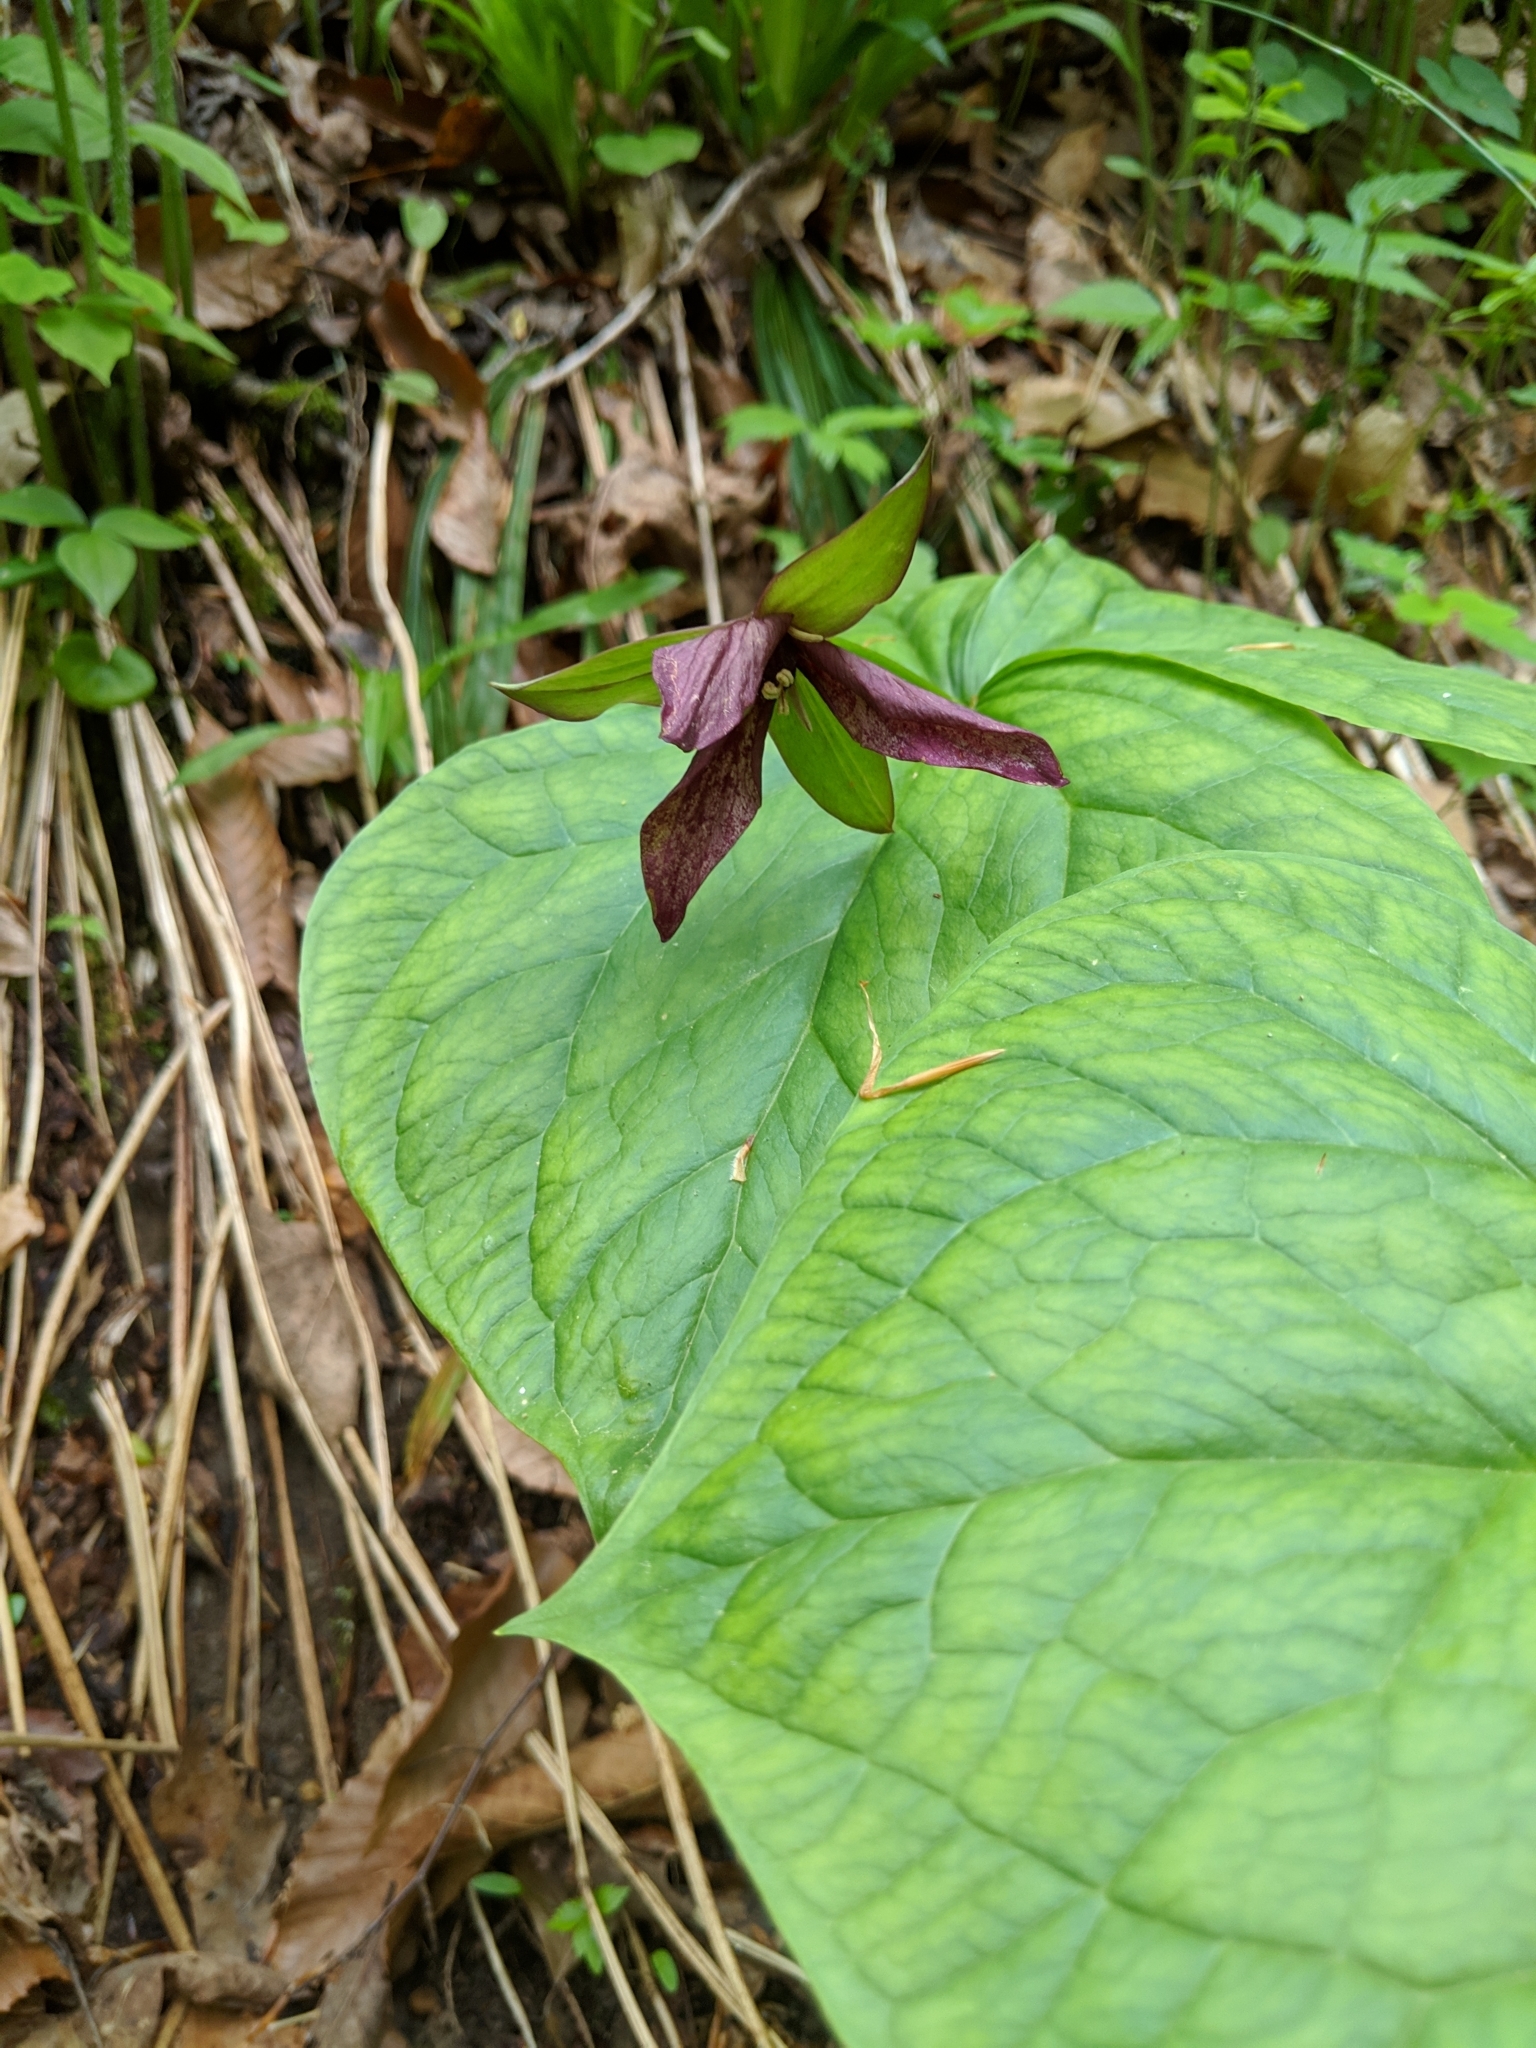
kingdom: Plantae
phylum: Tracheophyta
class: Liliopsida
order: Liliales
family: Melanthiaceae
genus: Trillium
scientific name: Trillium erectum
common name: Purple trillium
